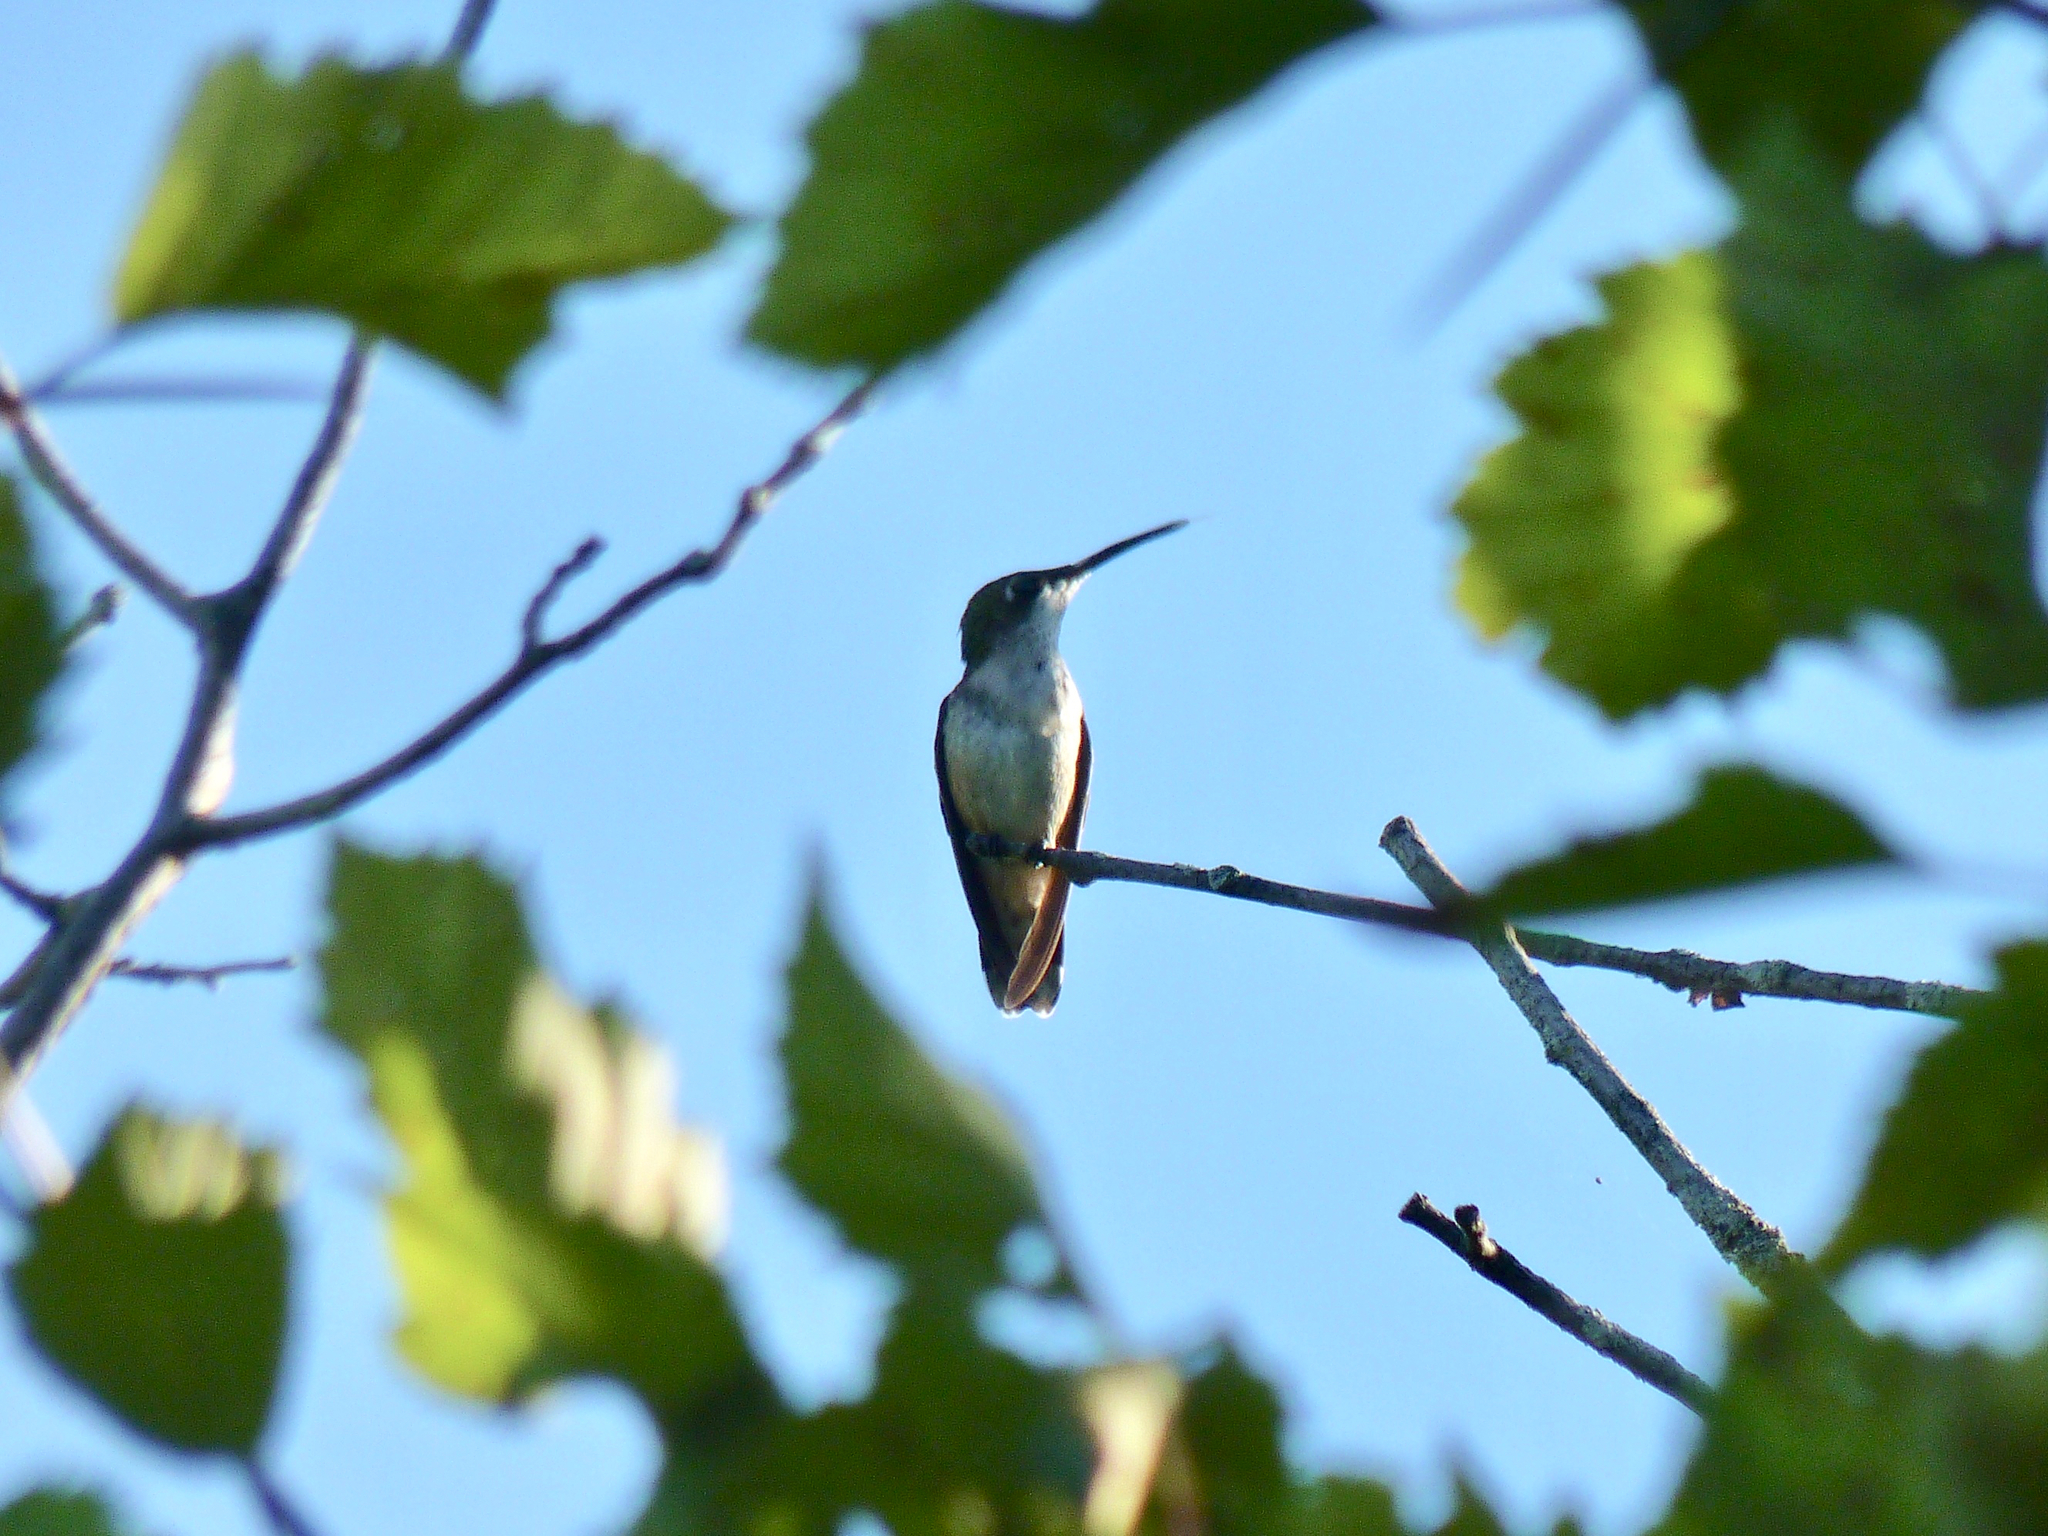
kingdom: Animalia
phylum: Chordata
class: Aves
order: Apodiformes
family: Trochilidae
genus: Archilochus
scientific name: Archilochus colubris
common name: Ruby-throated hummingbird
